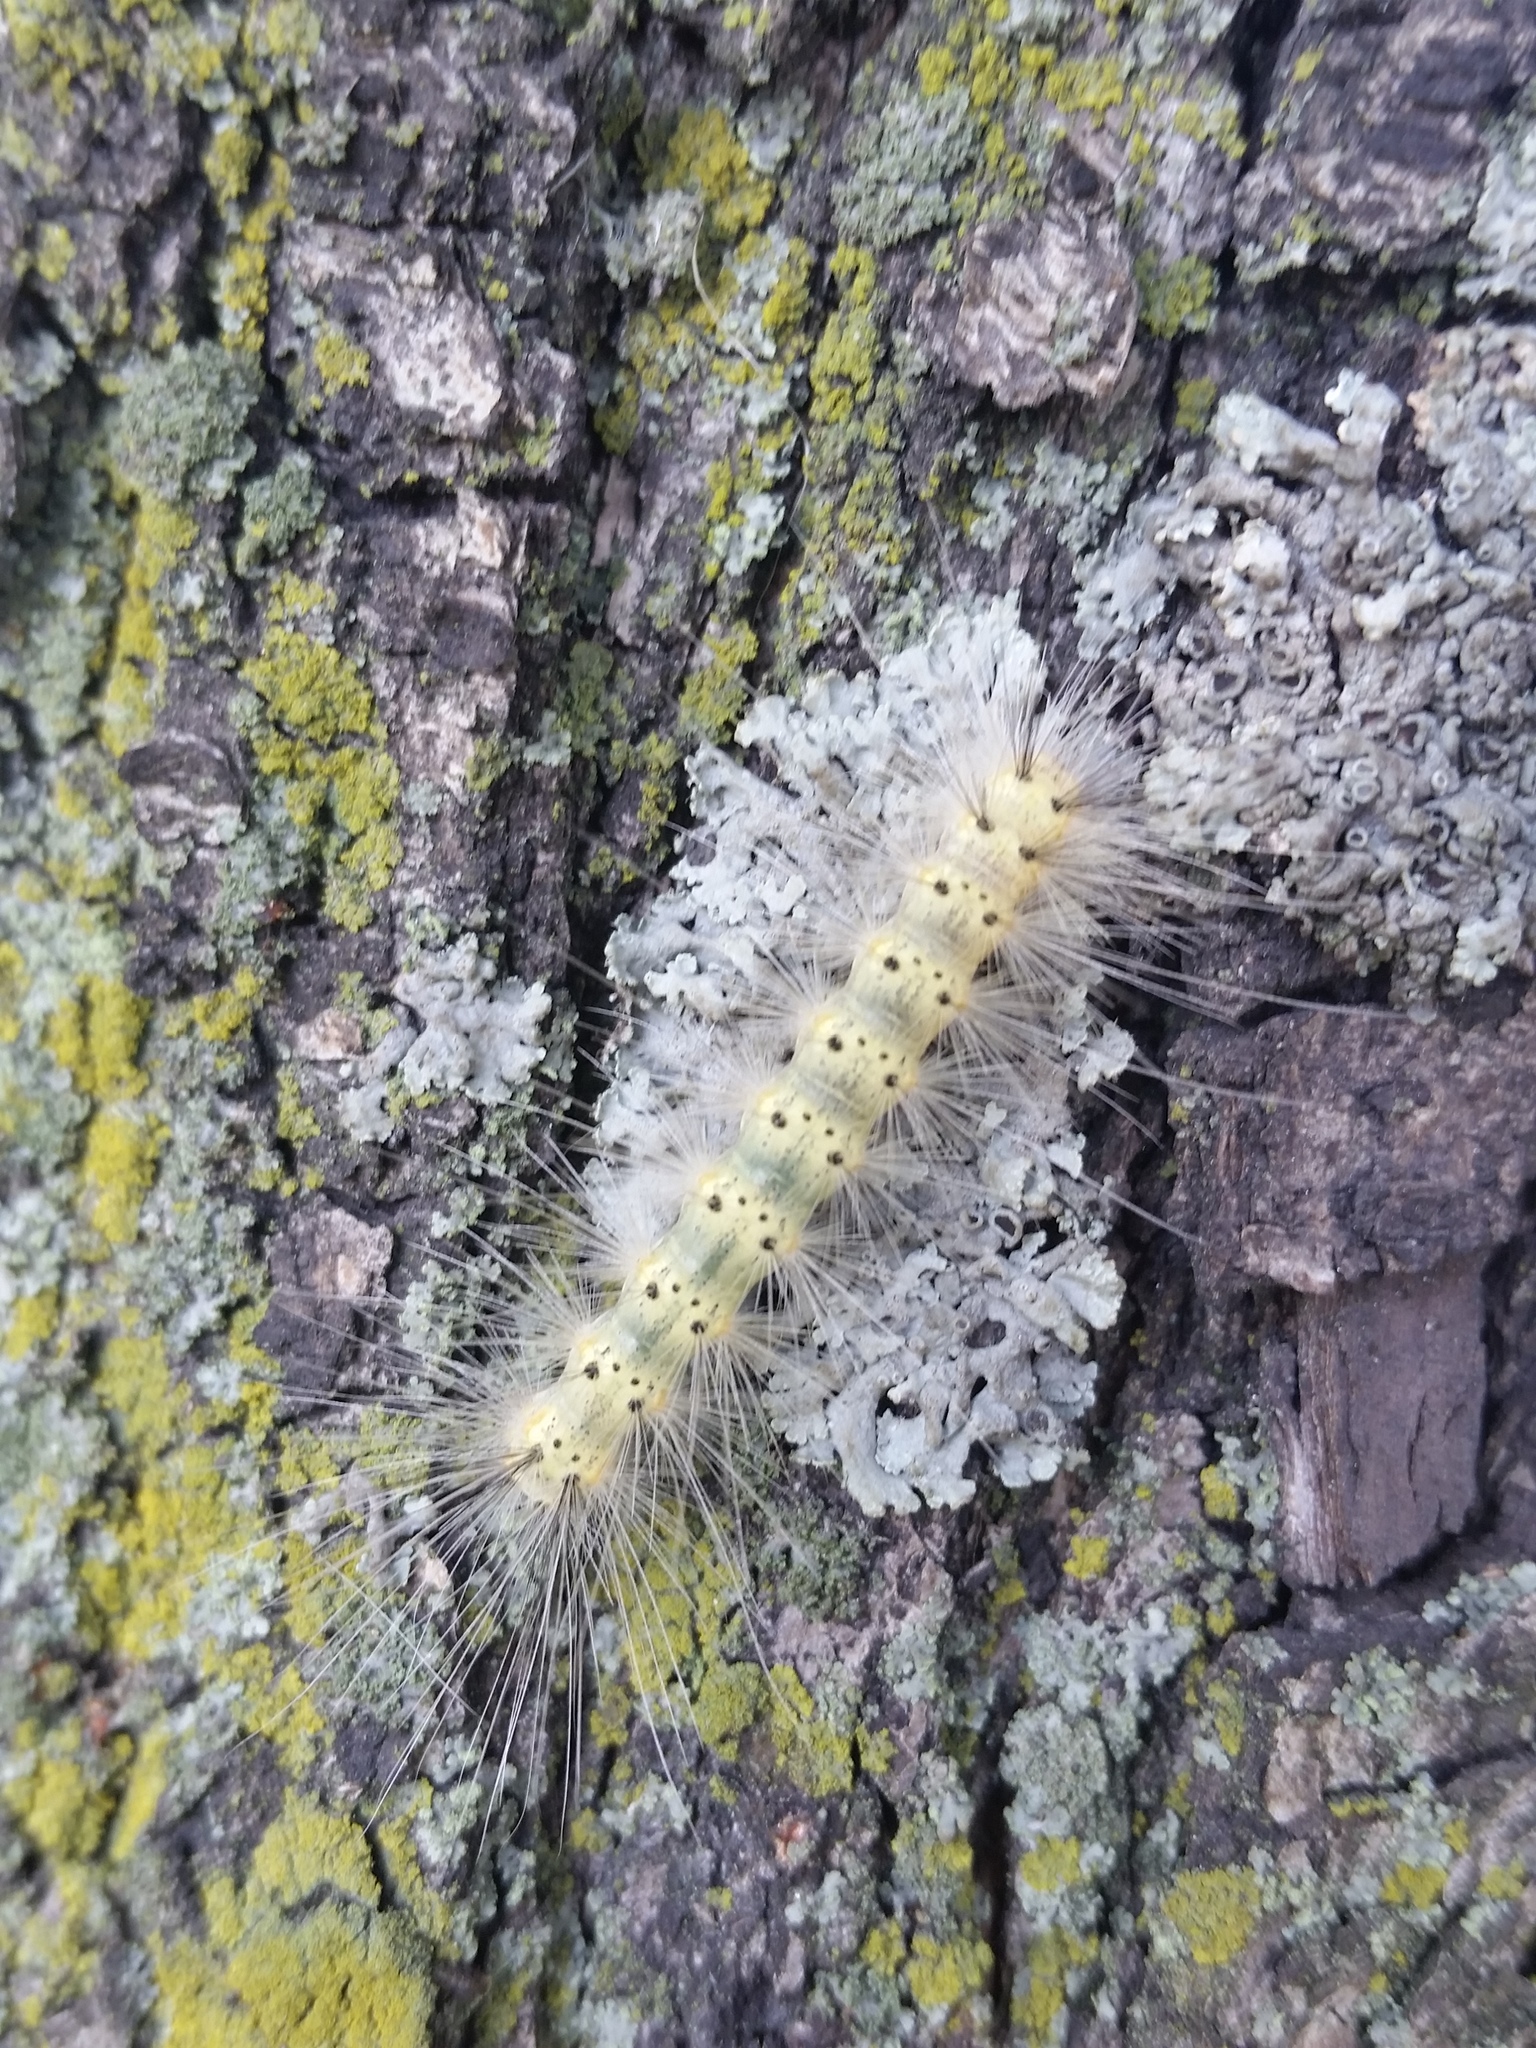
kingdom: Animalia
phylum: Arthropoda
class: Insecta
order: Lepidoptera
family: Erebidae
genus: Hyphantria
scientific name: Hyphantria cunea
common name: American white moth
